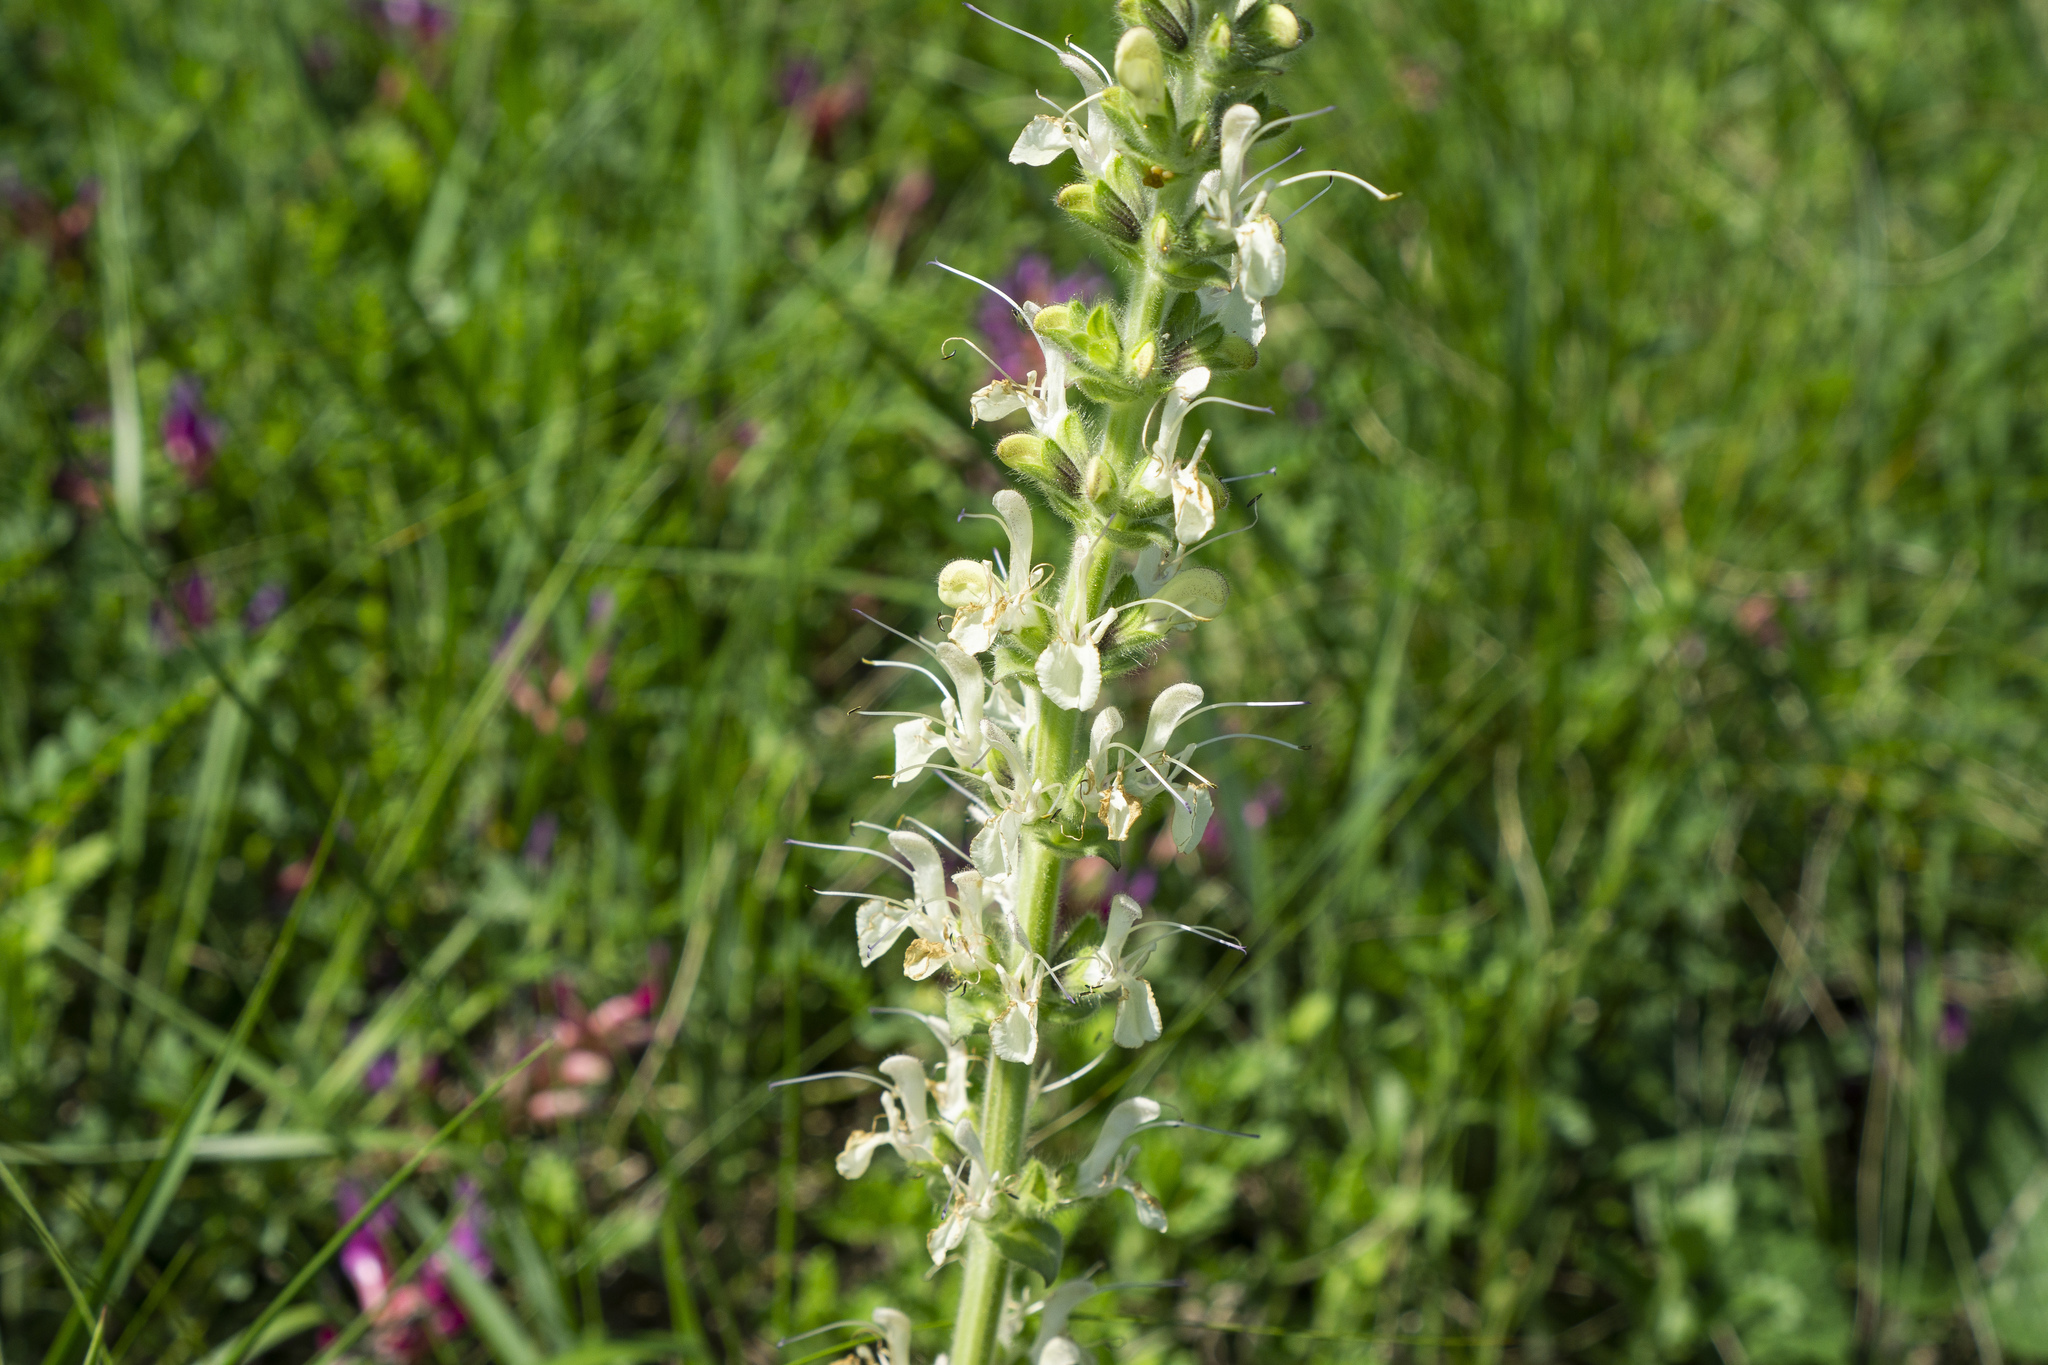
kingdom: Plantae
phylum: Tracheophyta
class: Magnoliopsida
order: Lamiales
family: Lamiaceae
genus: Salvia
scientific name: Salvia austriaca
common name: Austrian sage
